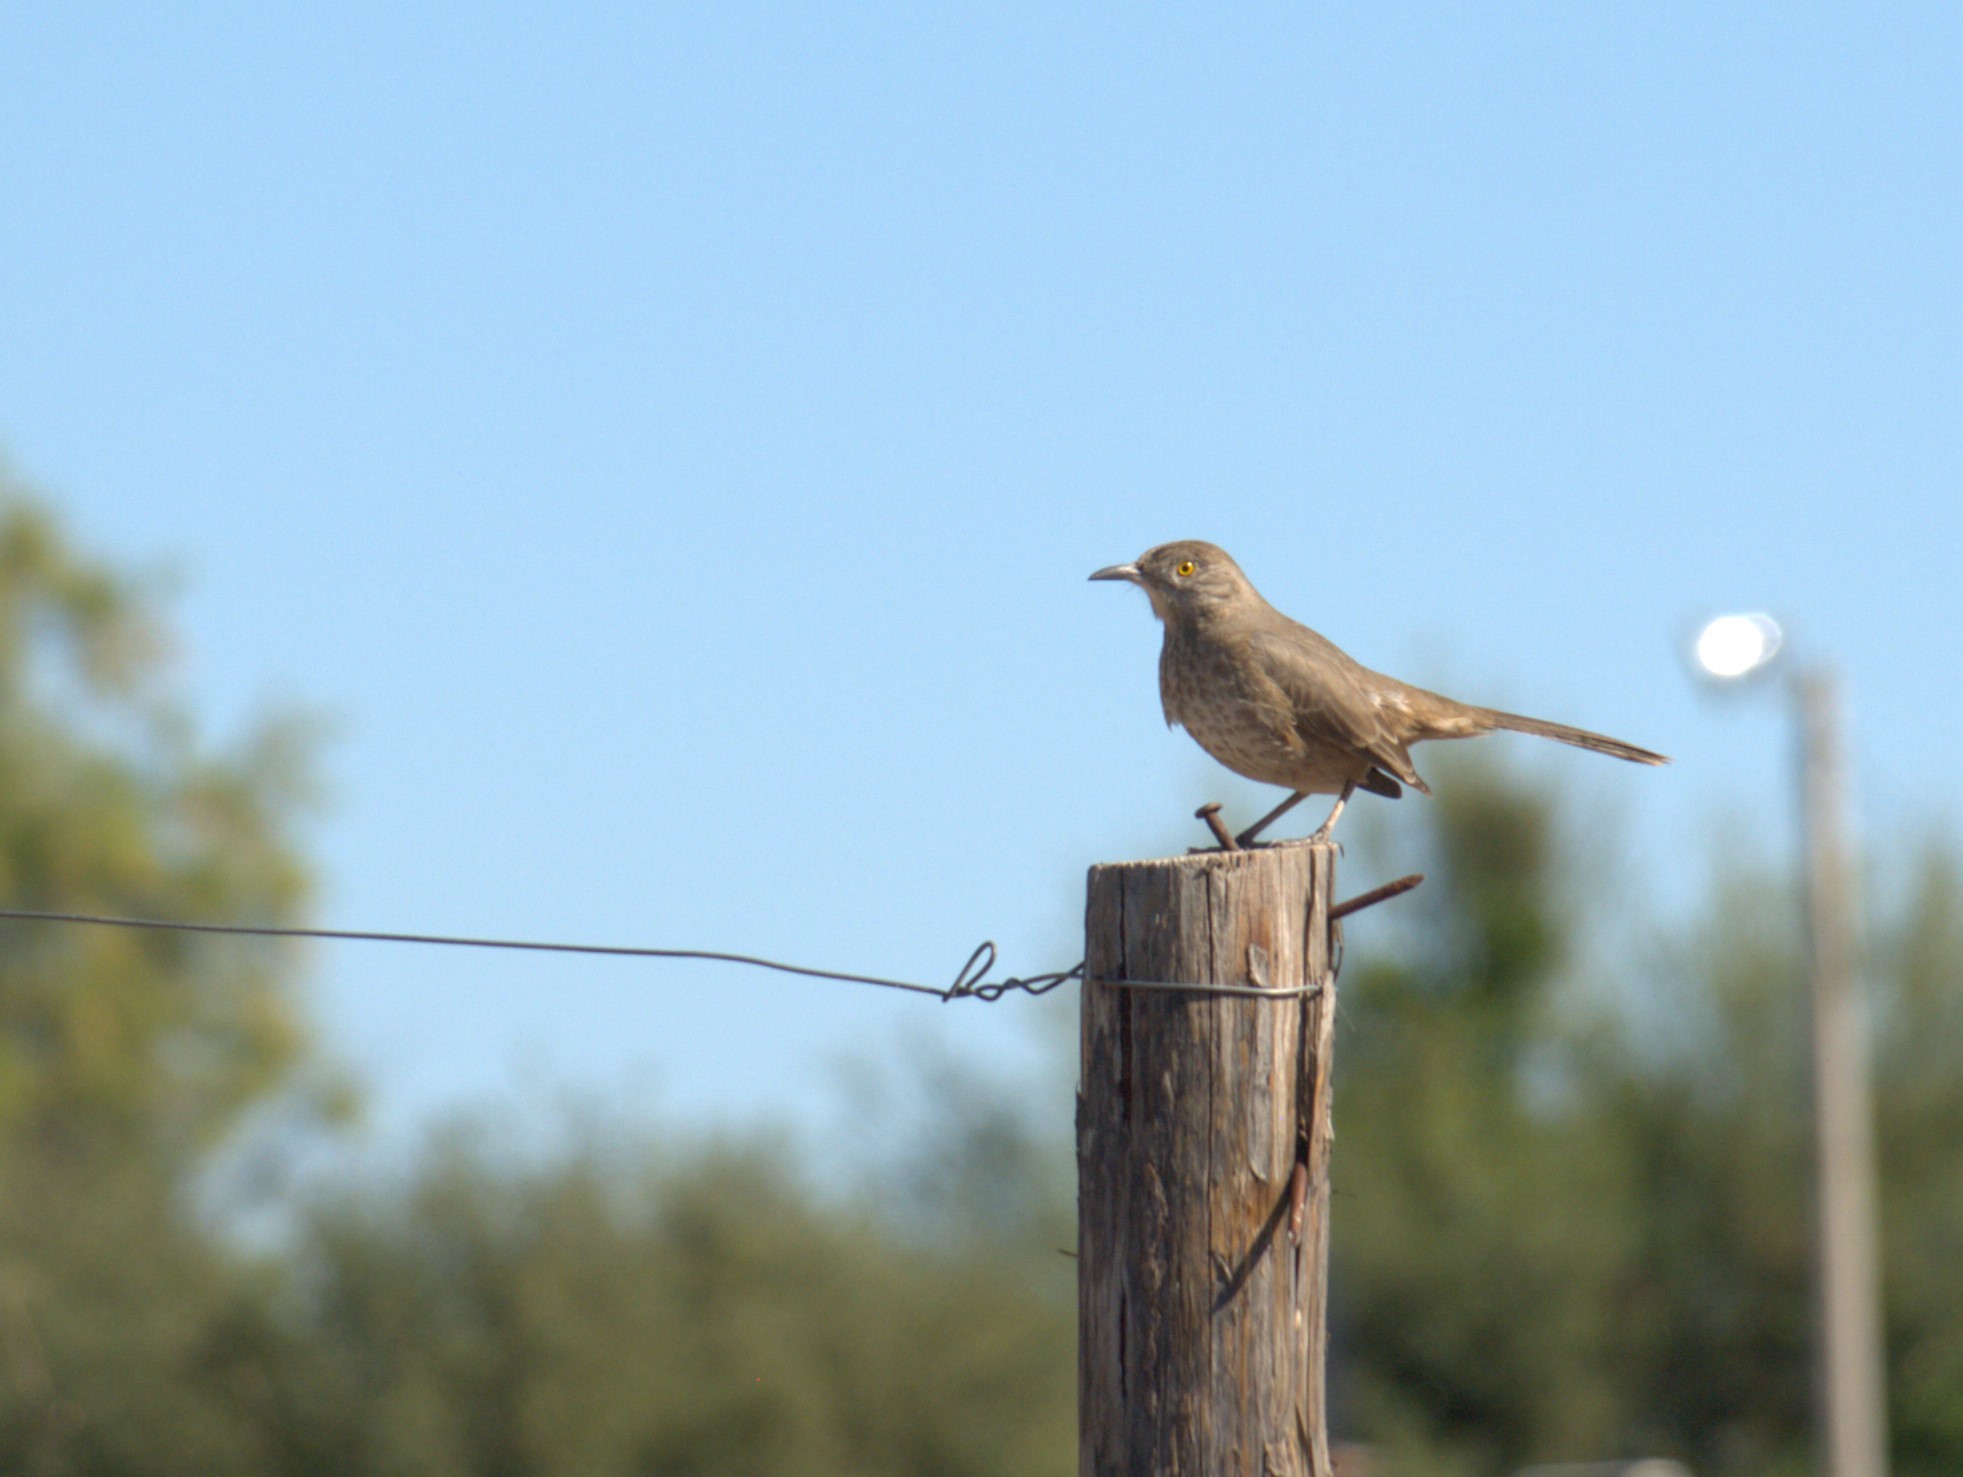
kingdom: Animalia
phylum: Chordata
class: Aves
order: Passeriformes
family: Mimidae
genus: Toxostoma
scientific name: Toxostoma bendirei
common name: Bendire's thrasher
